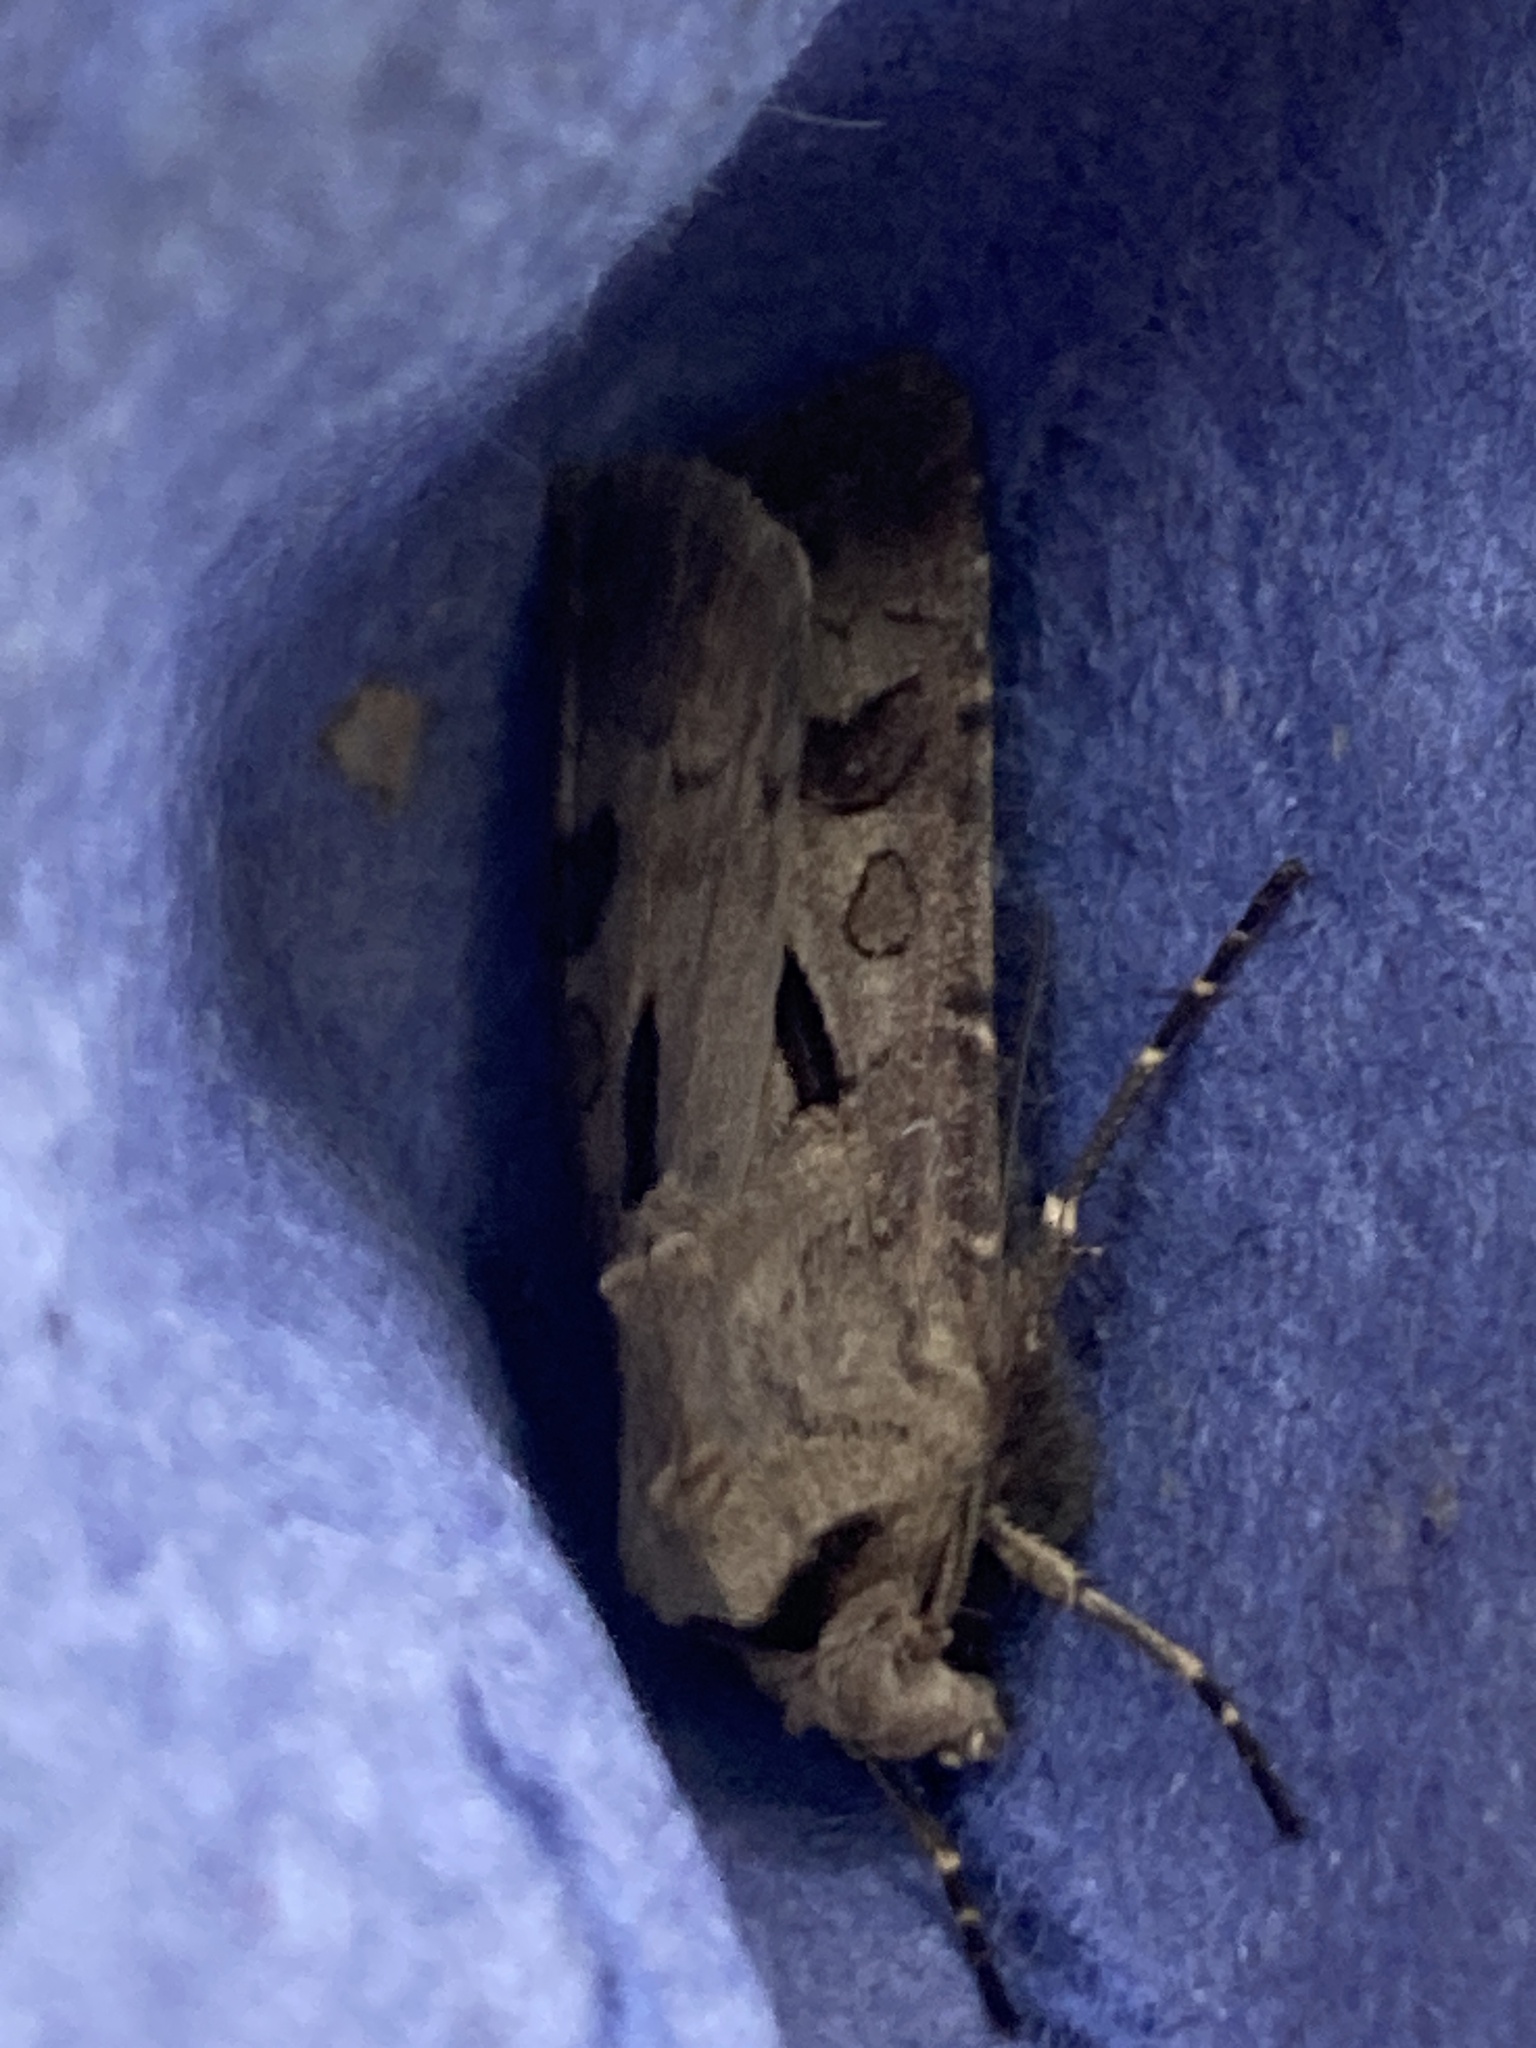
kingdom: Animalia
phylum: Arthropoda
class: Insecta
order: Lepidoptera
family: Noctuidae
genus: Agrotis
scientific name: Agrotis exclamationis
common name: Heart and dart
